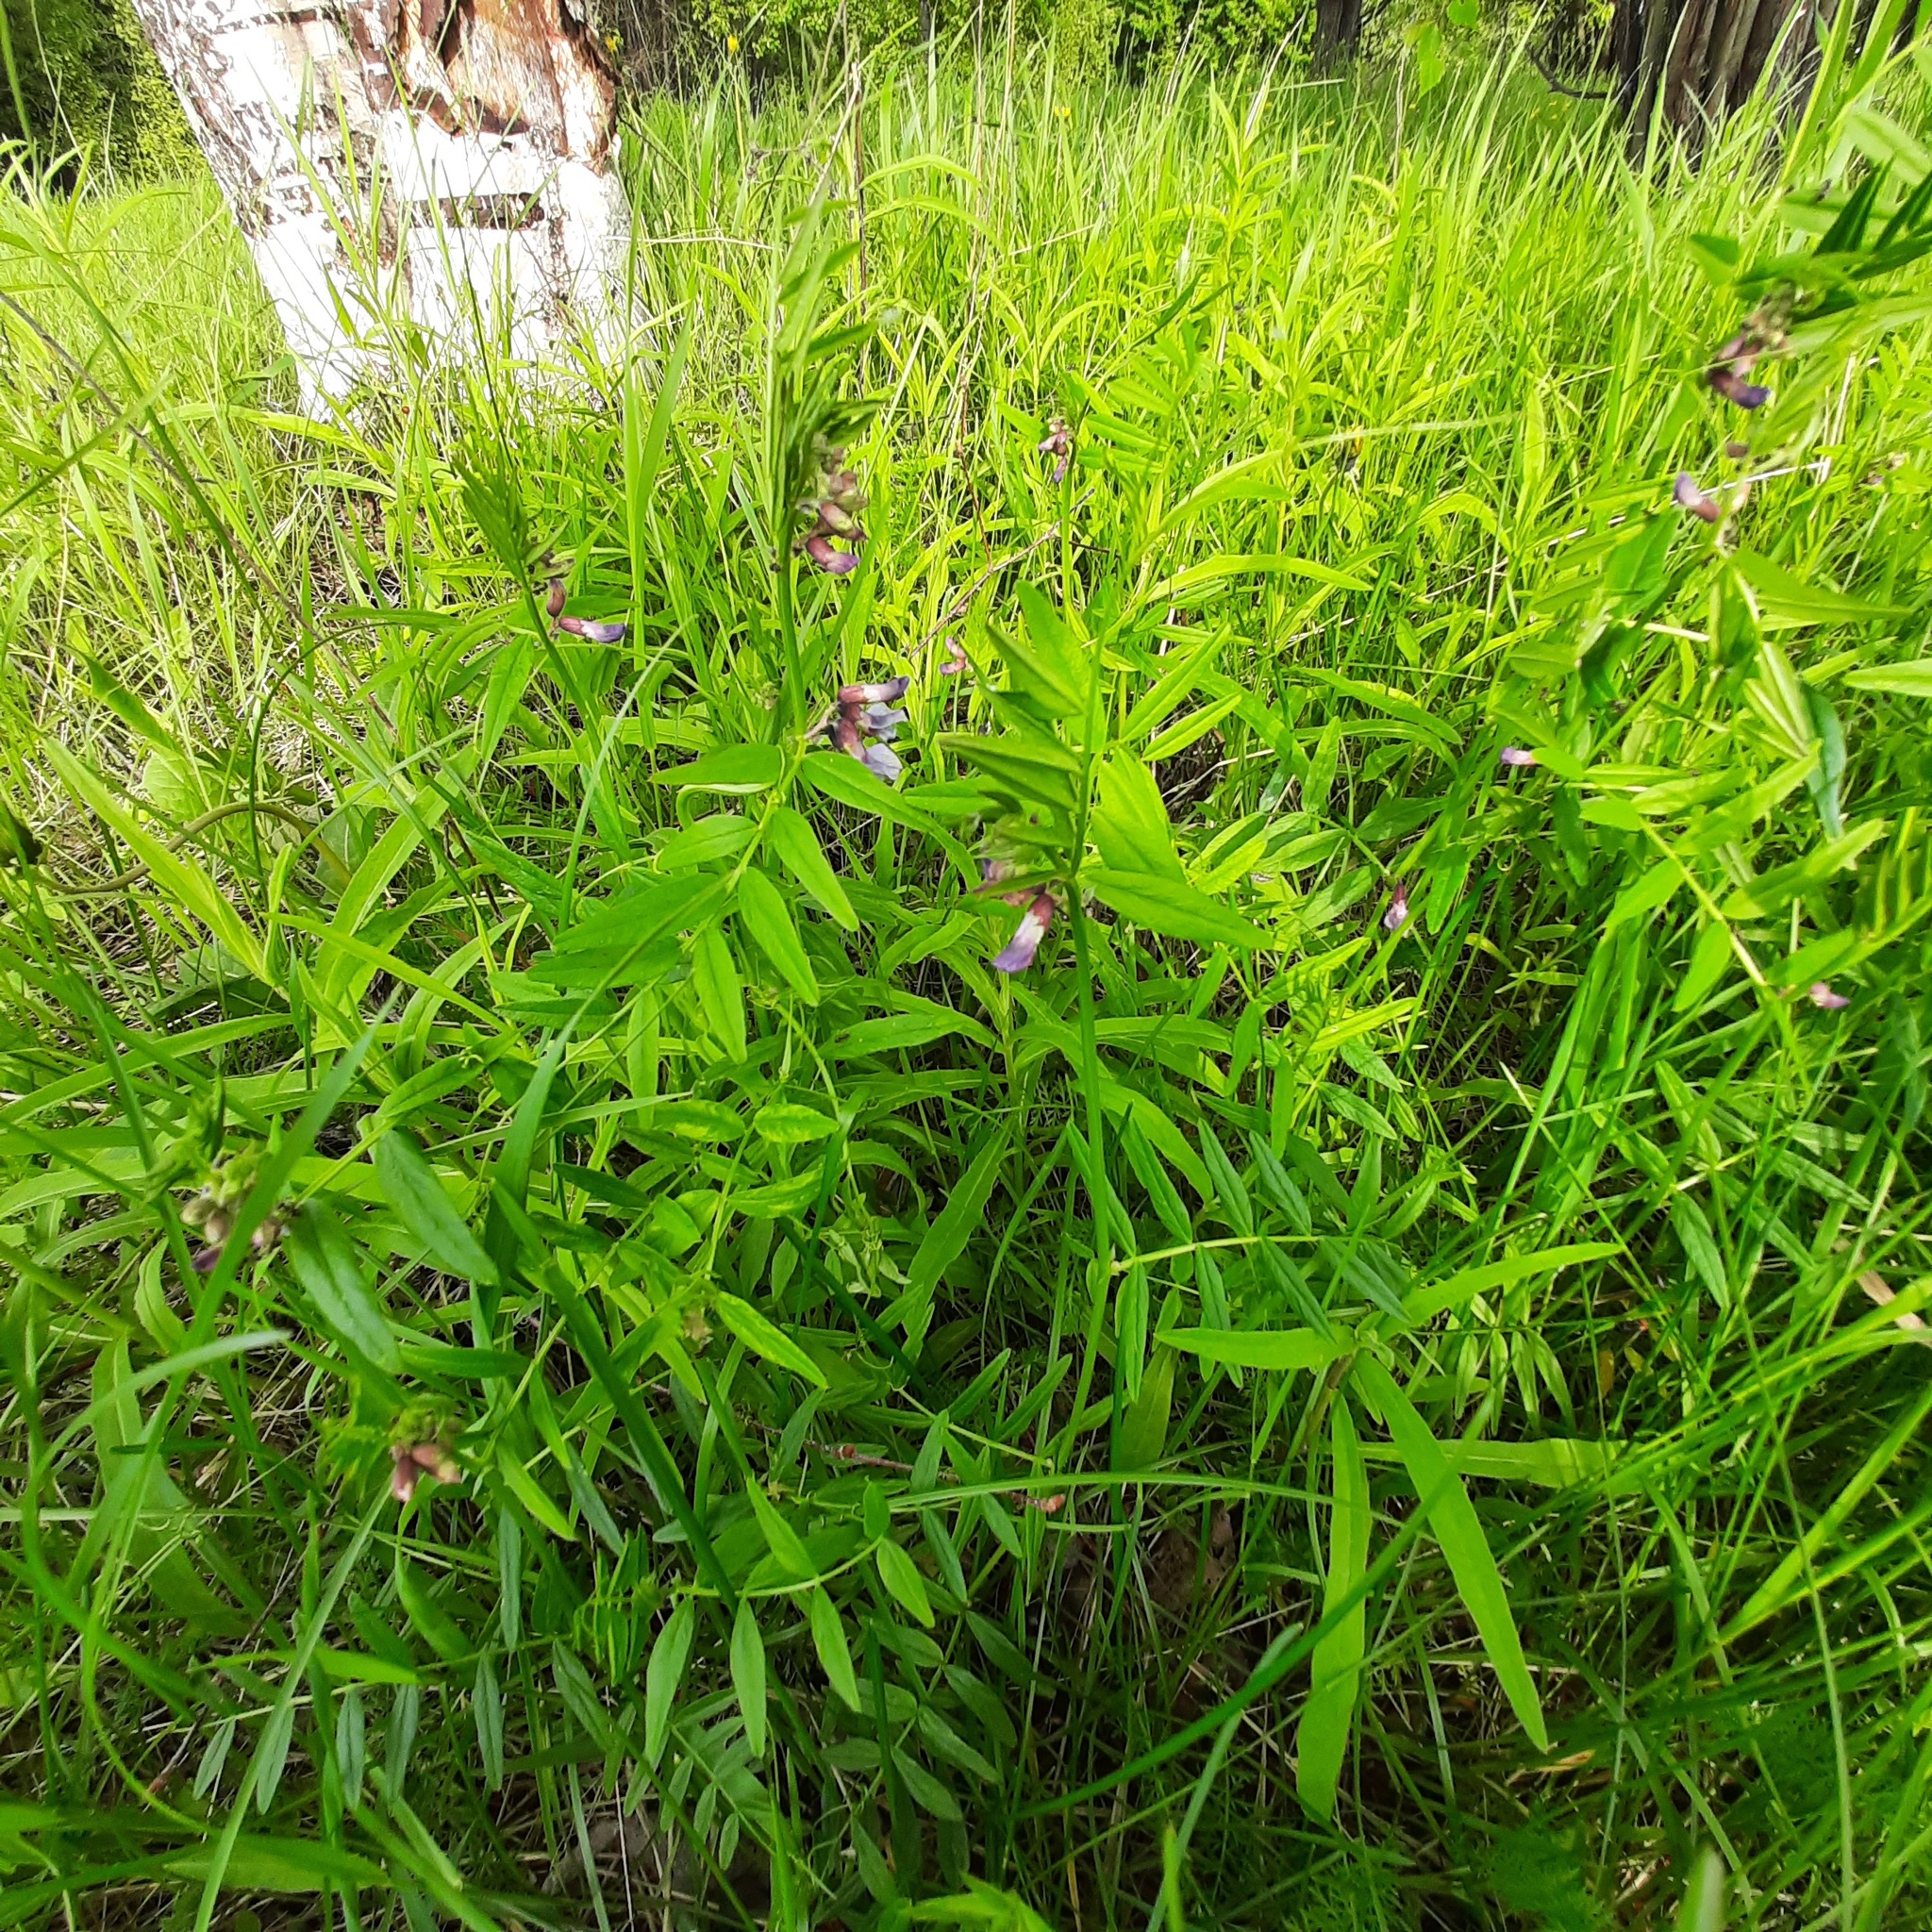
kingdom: Plantae
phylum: Tracheophyta
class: Magnoliopsida
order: Fabales
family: Fabaceae
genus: Vicia
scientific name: Vicia sepium
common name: Bush vetch
